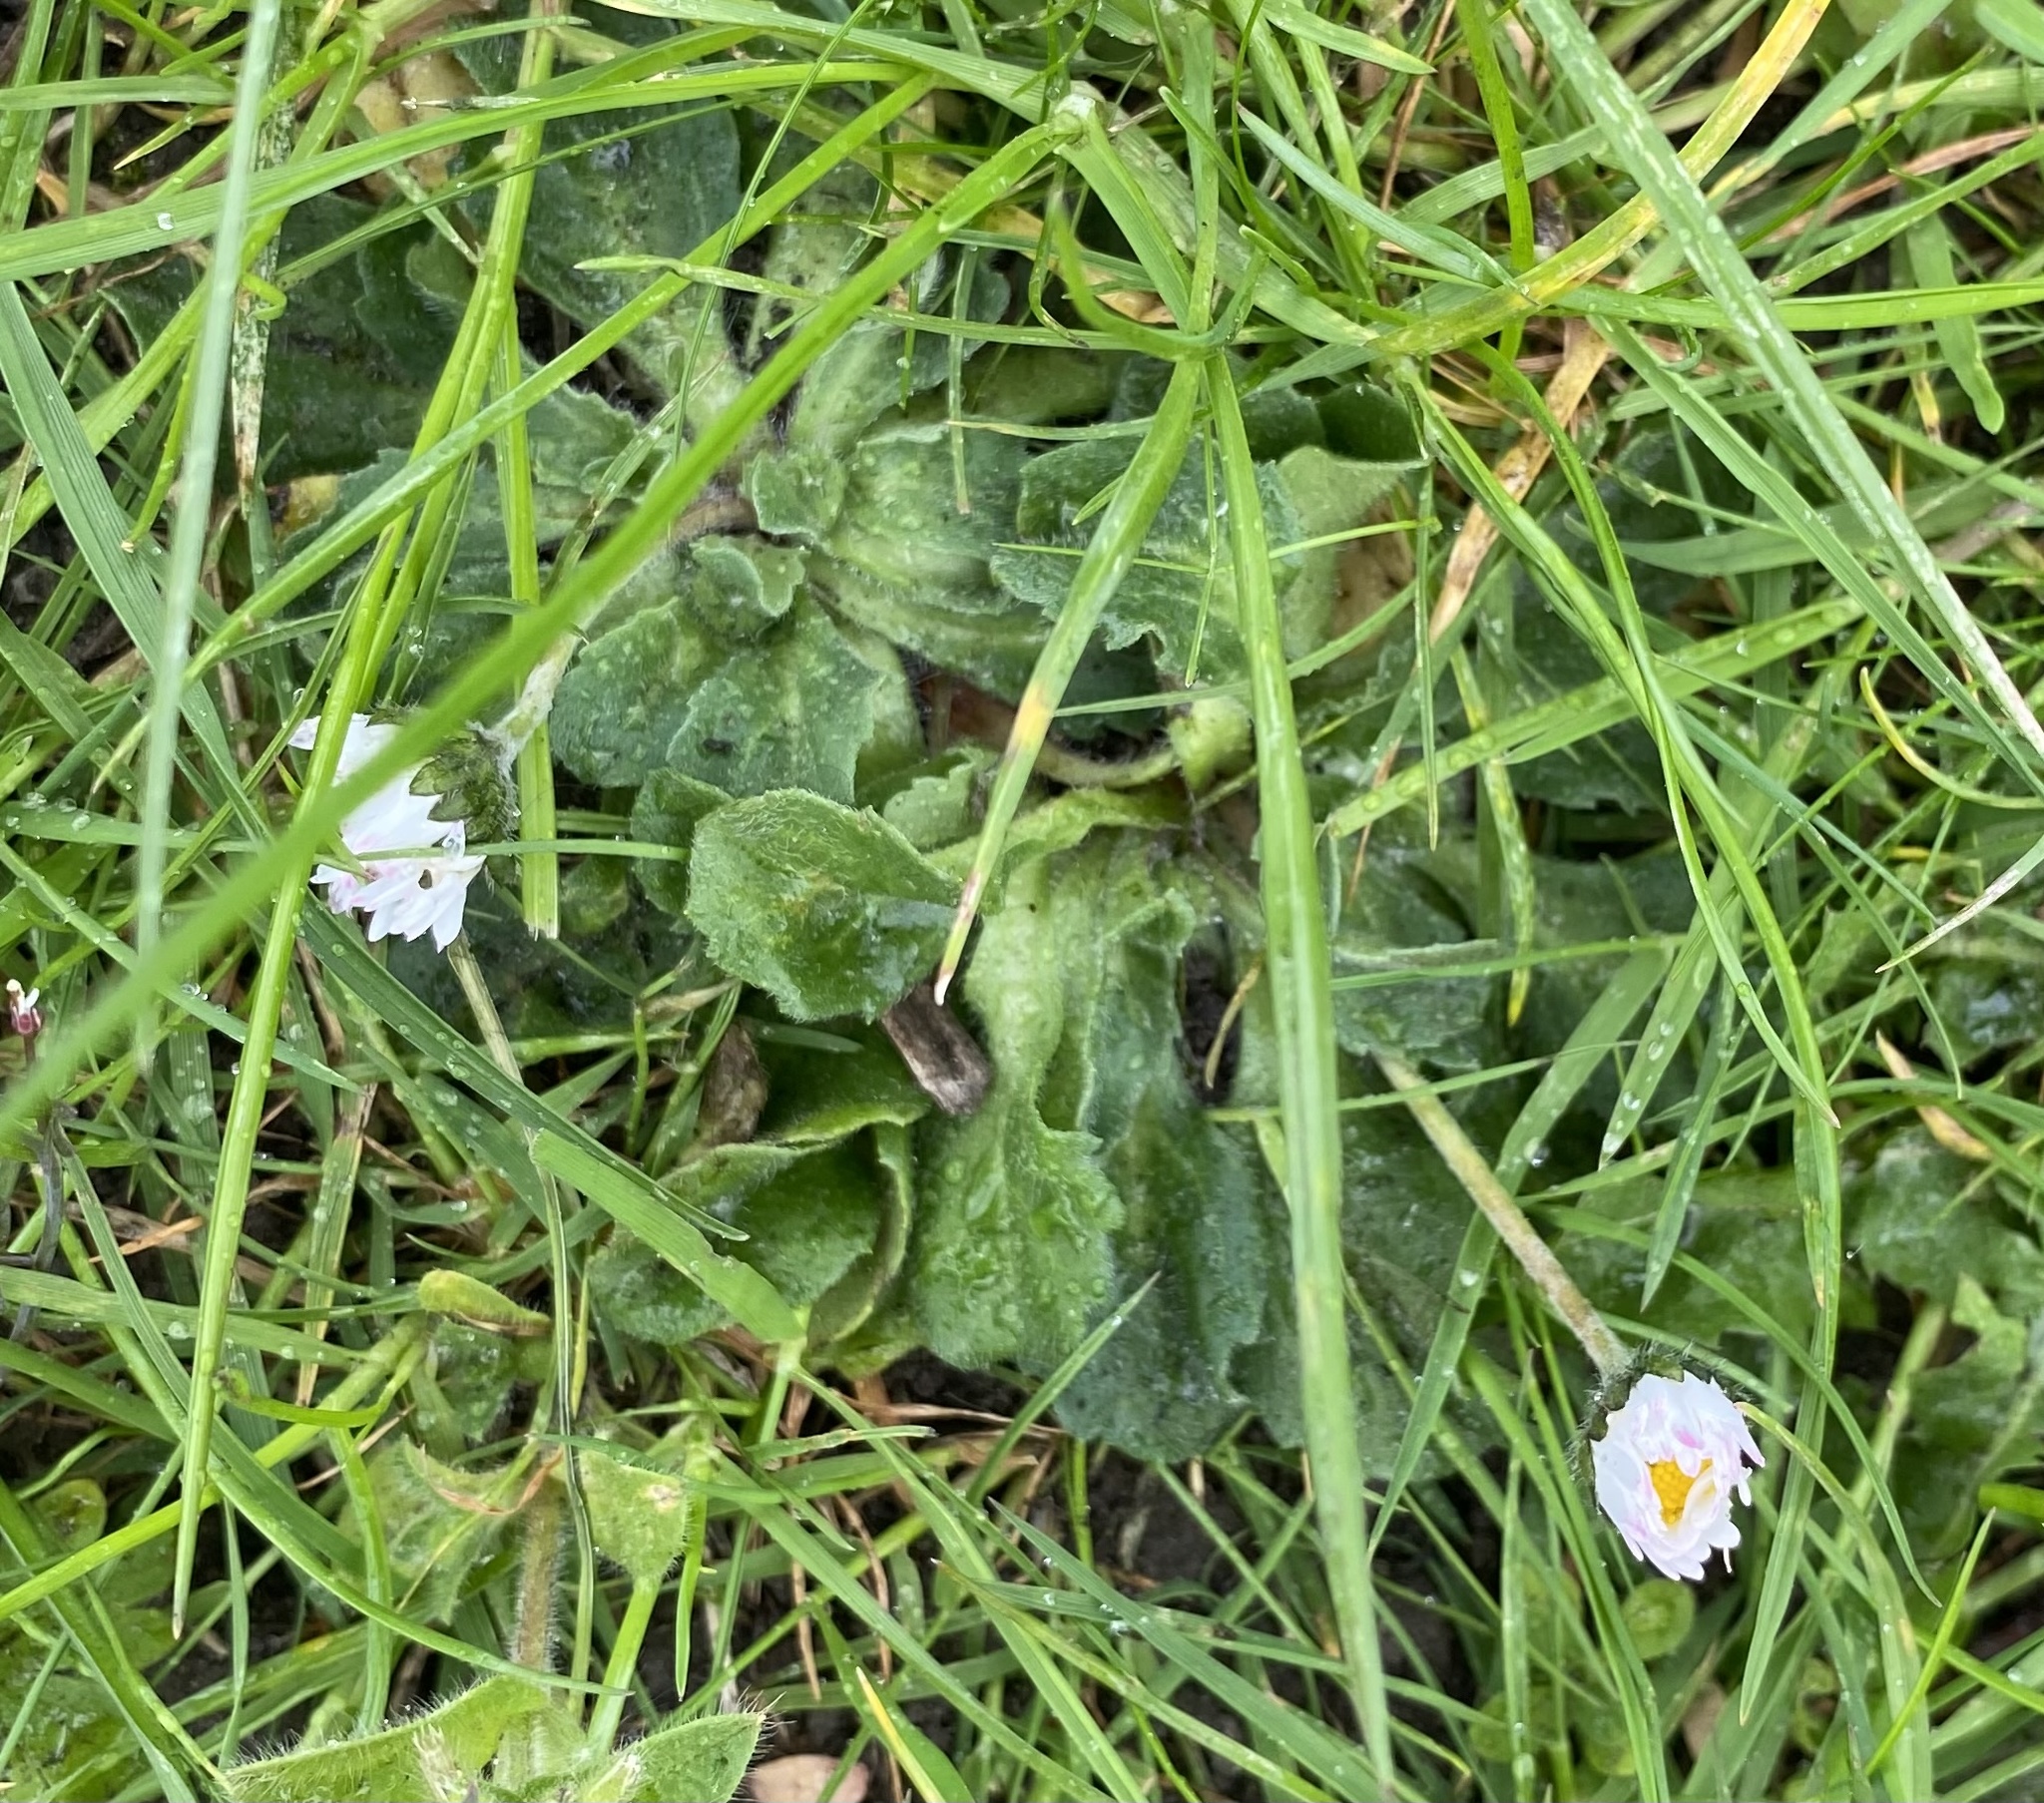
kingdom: Plantae
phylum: Tracheophyta
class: Magnoliopsida
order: Asterales
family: Asteraceae
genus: Bellis
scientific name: Bellis perennis
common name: Lawndaisy
